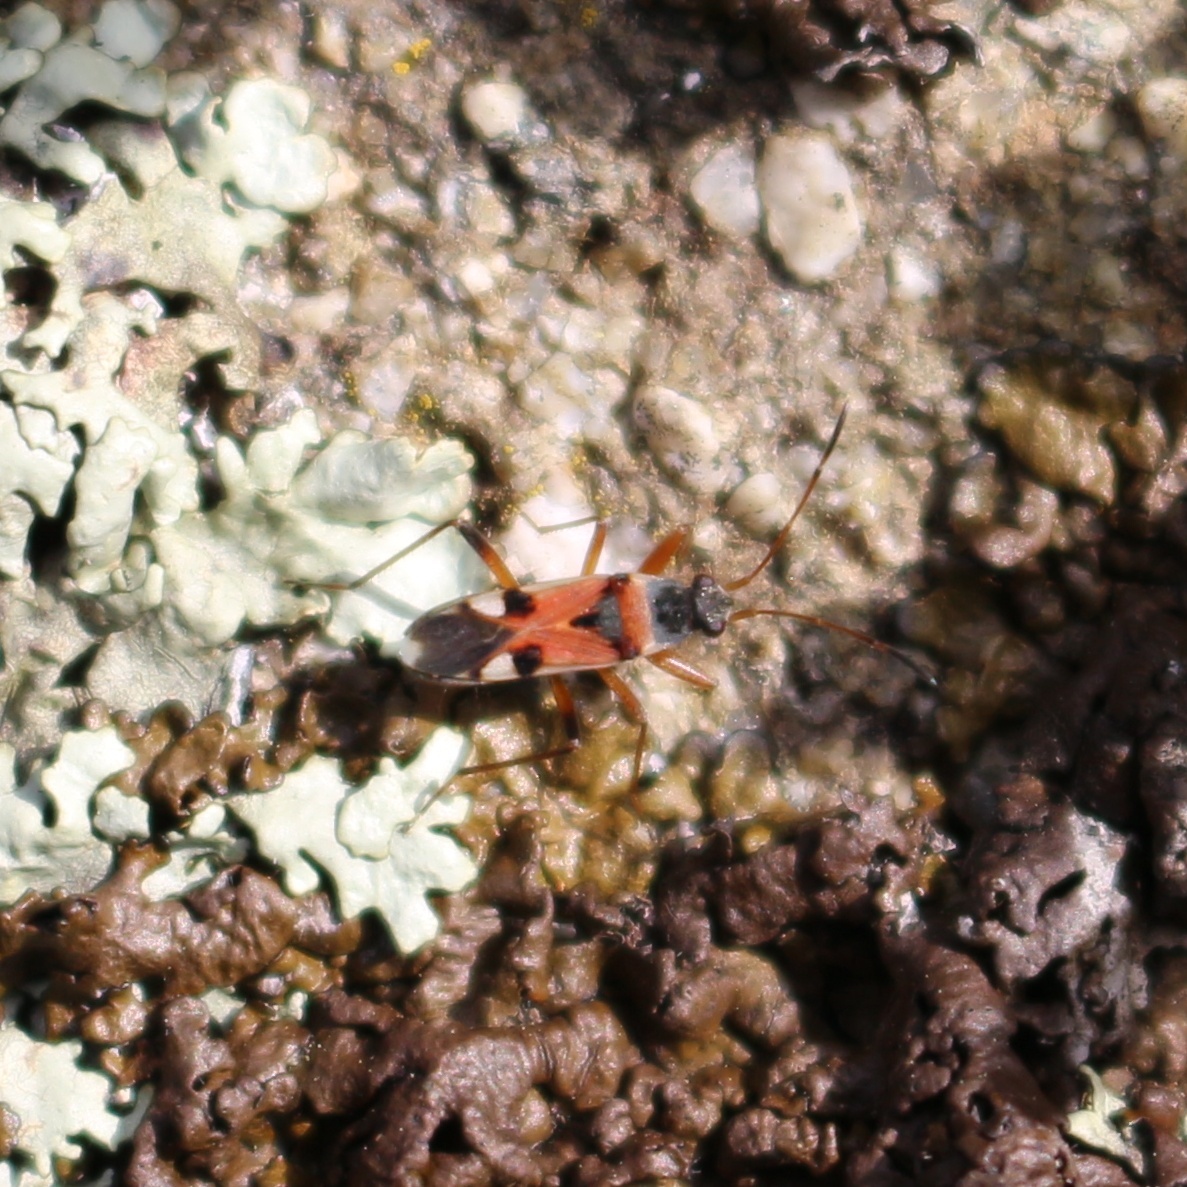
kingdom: Animalia
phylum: Arthropoda
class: Insecta
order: Hemiptera
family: Rhyparochromidae
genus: Beosus
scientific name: Beosus quadripunctatus
